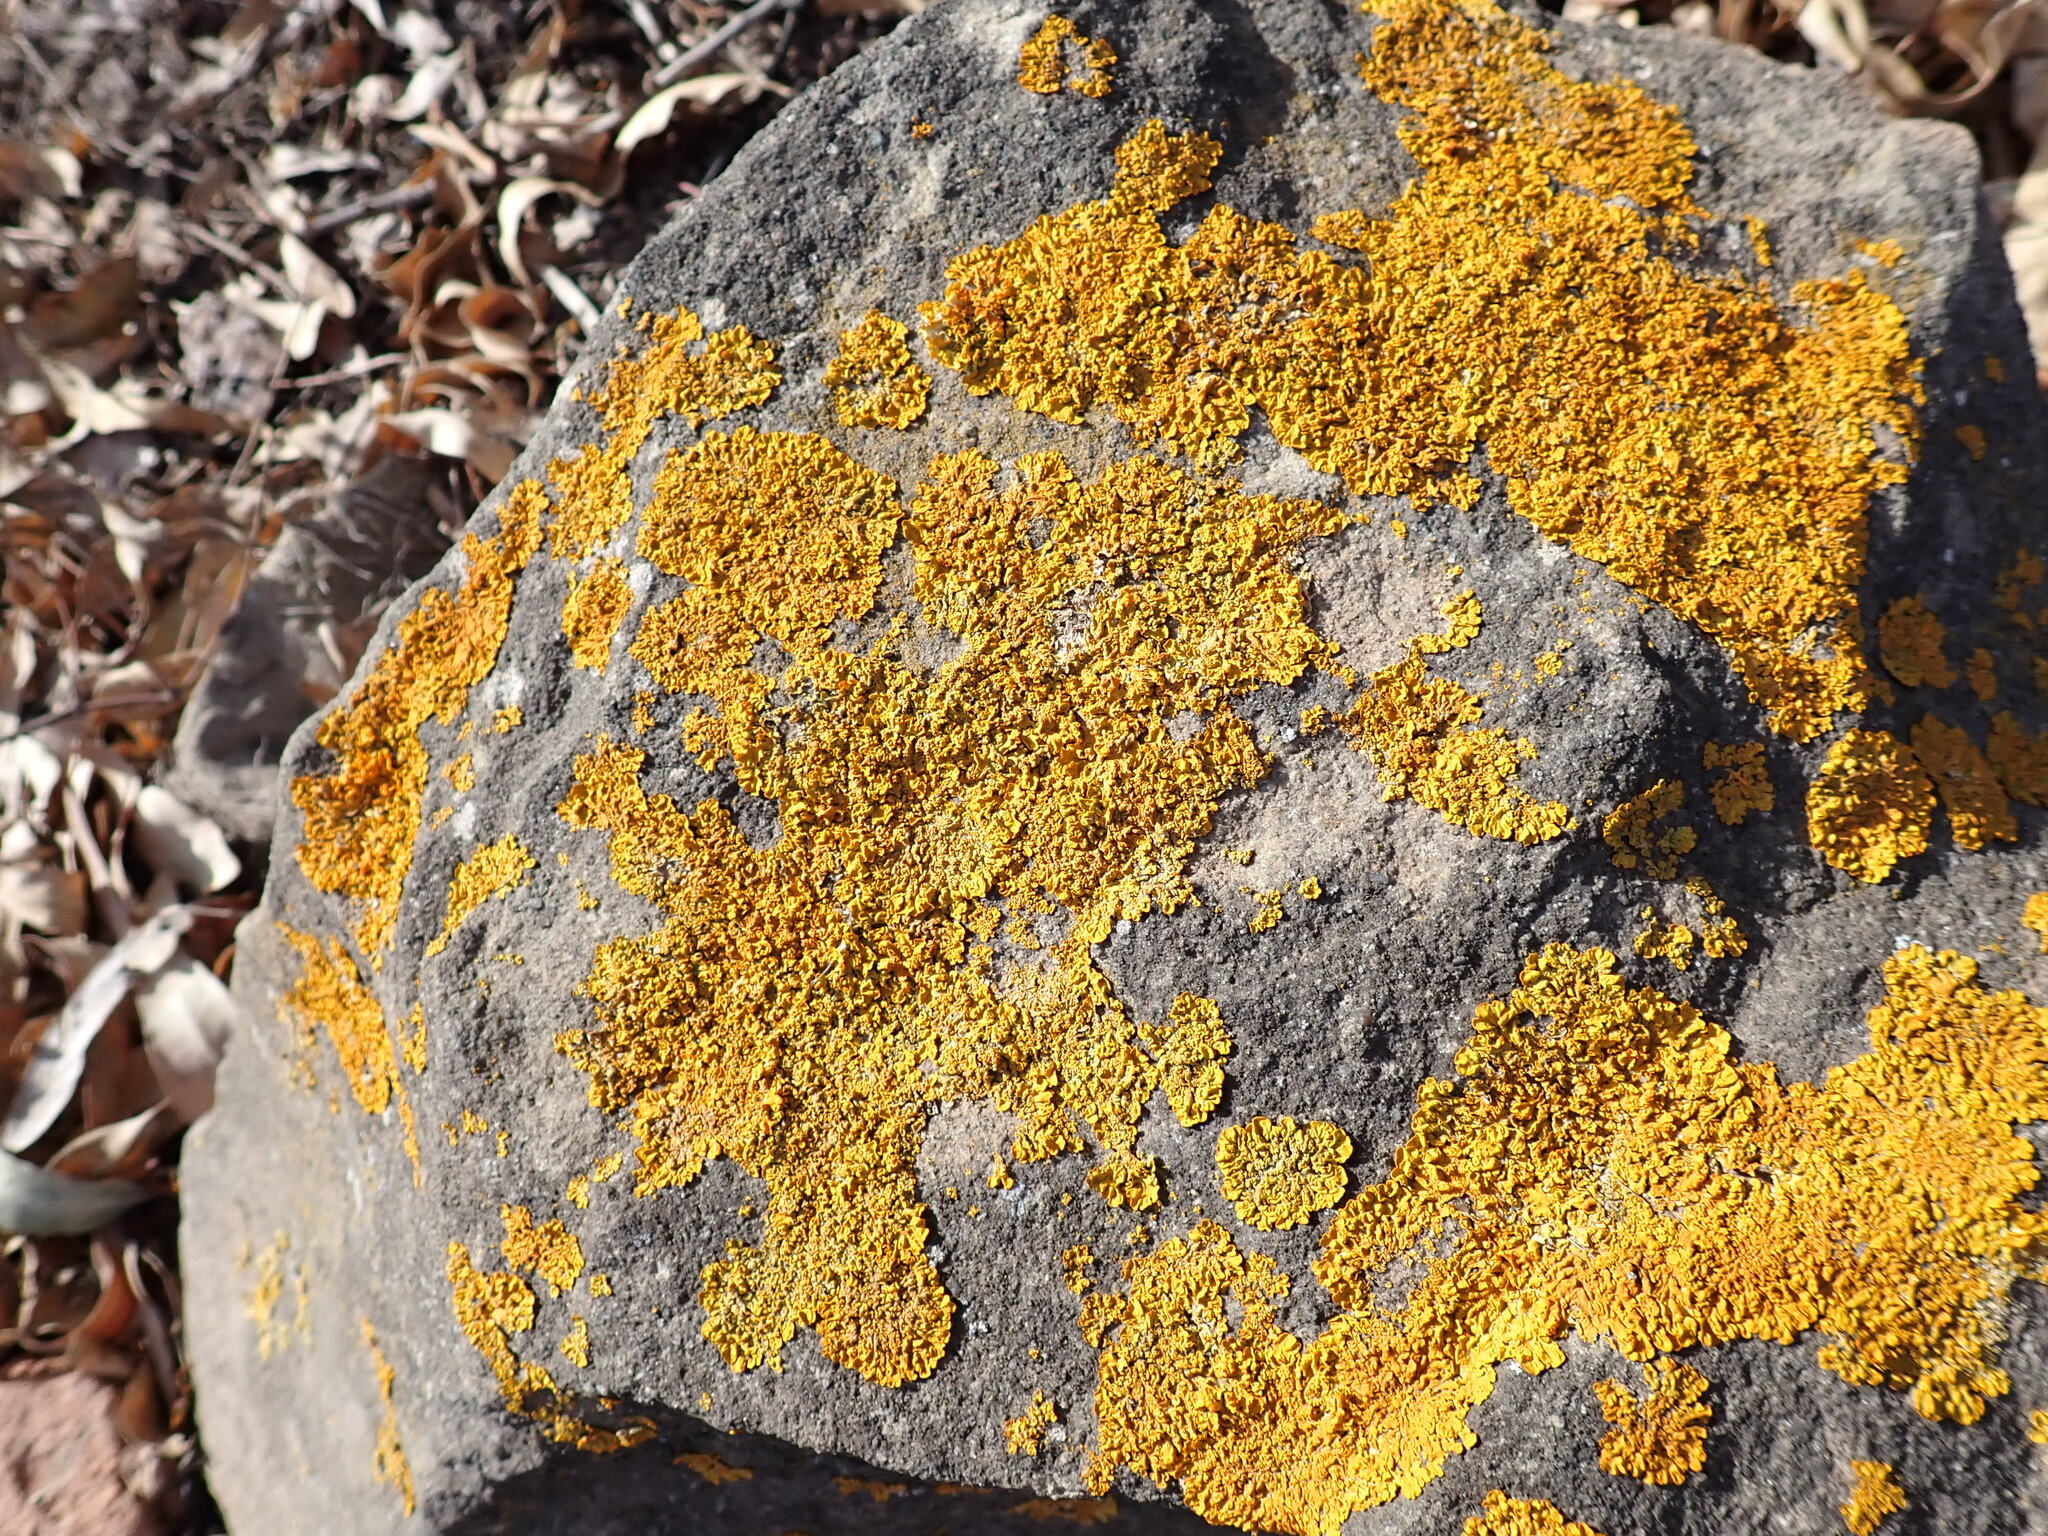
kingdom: Fungi
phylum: Ascomycota
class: Lecanoromycetes
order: Teloschistales
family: Teloschistaceae
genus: Xanthoria
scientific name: Xanthoria parietina
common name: Common orange lichen
